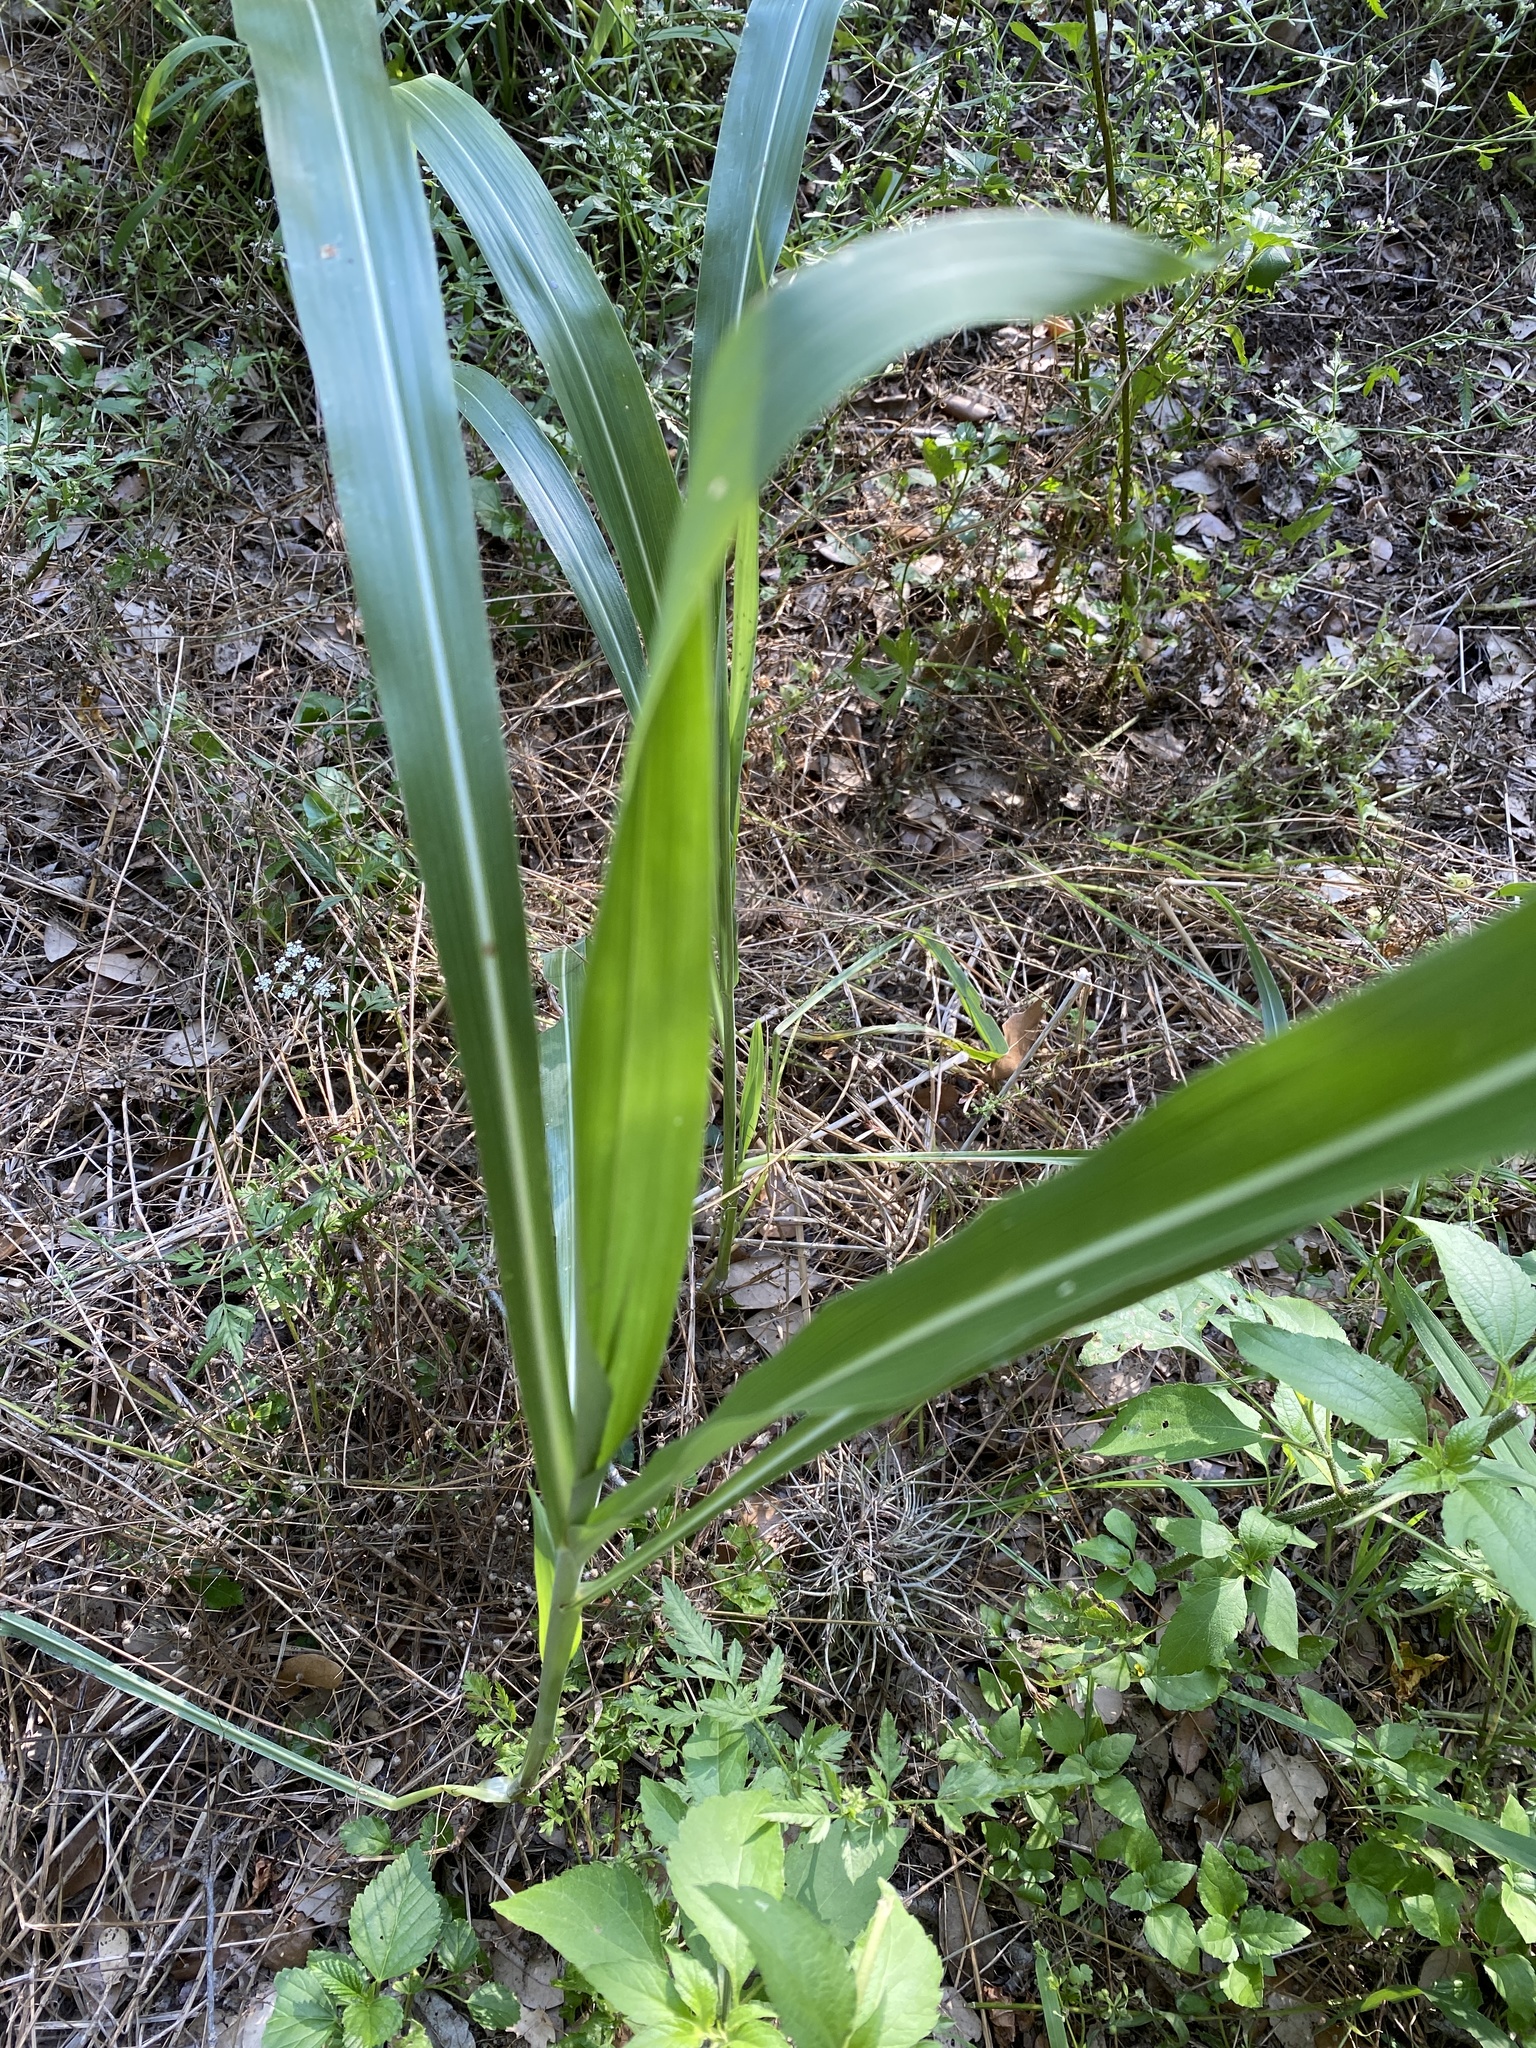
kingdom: Plantae
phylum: Tracheophyta
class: Liliopsida
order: Poales
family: Poaceae
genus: Sorghum
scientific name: Sorghum halepense
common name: Johnson-grass
